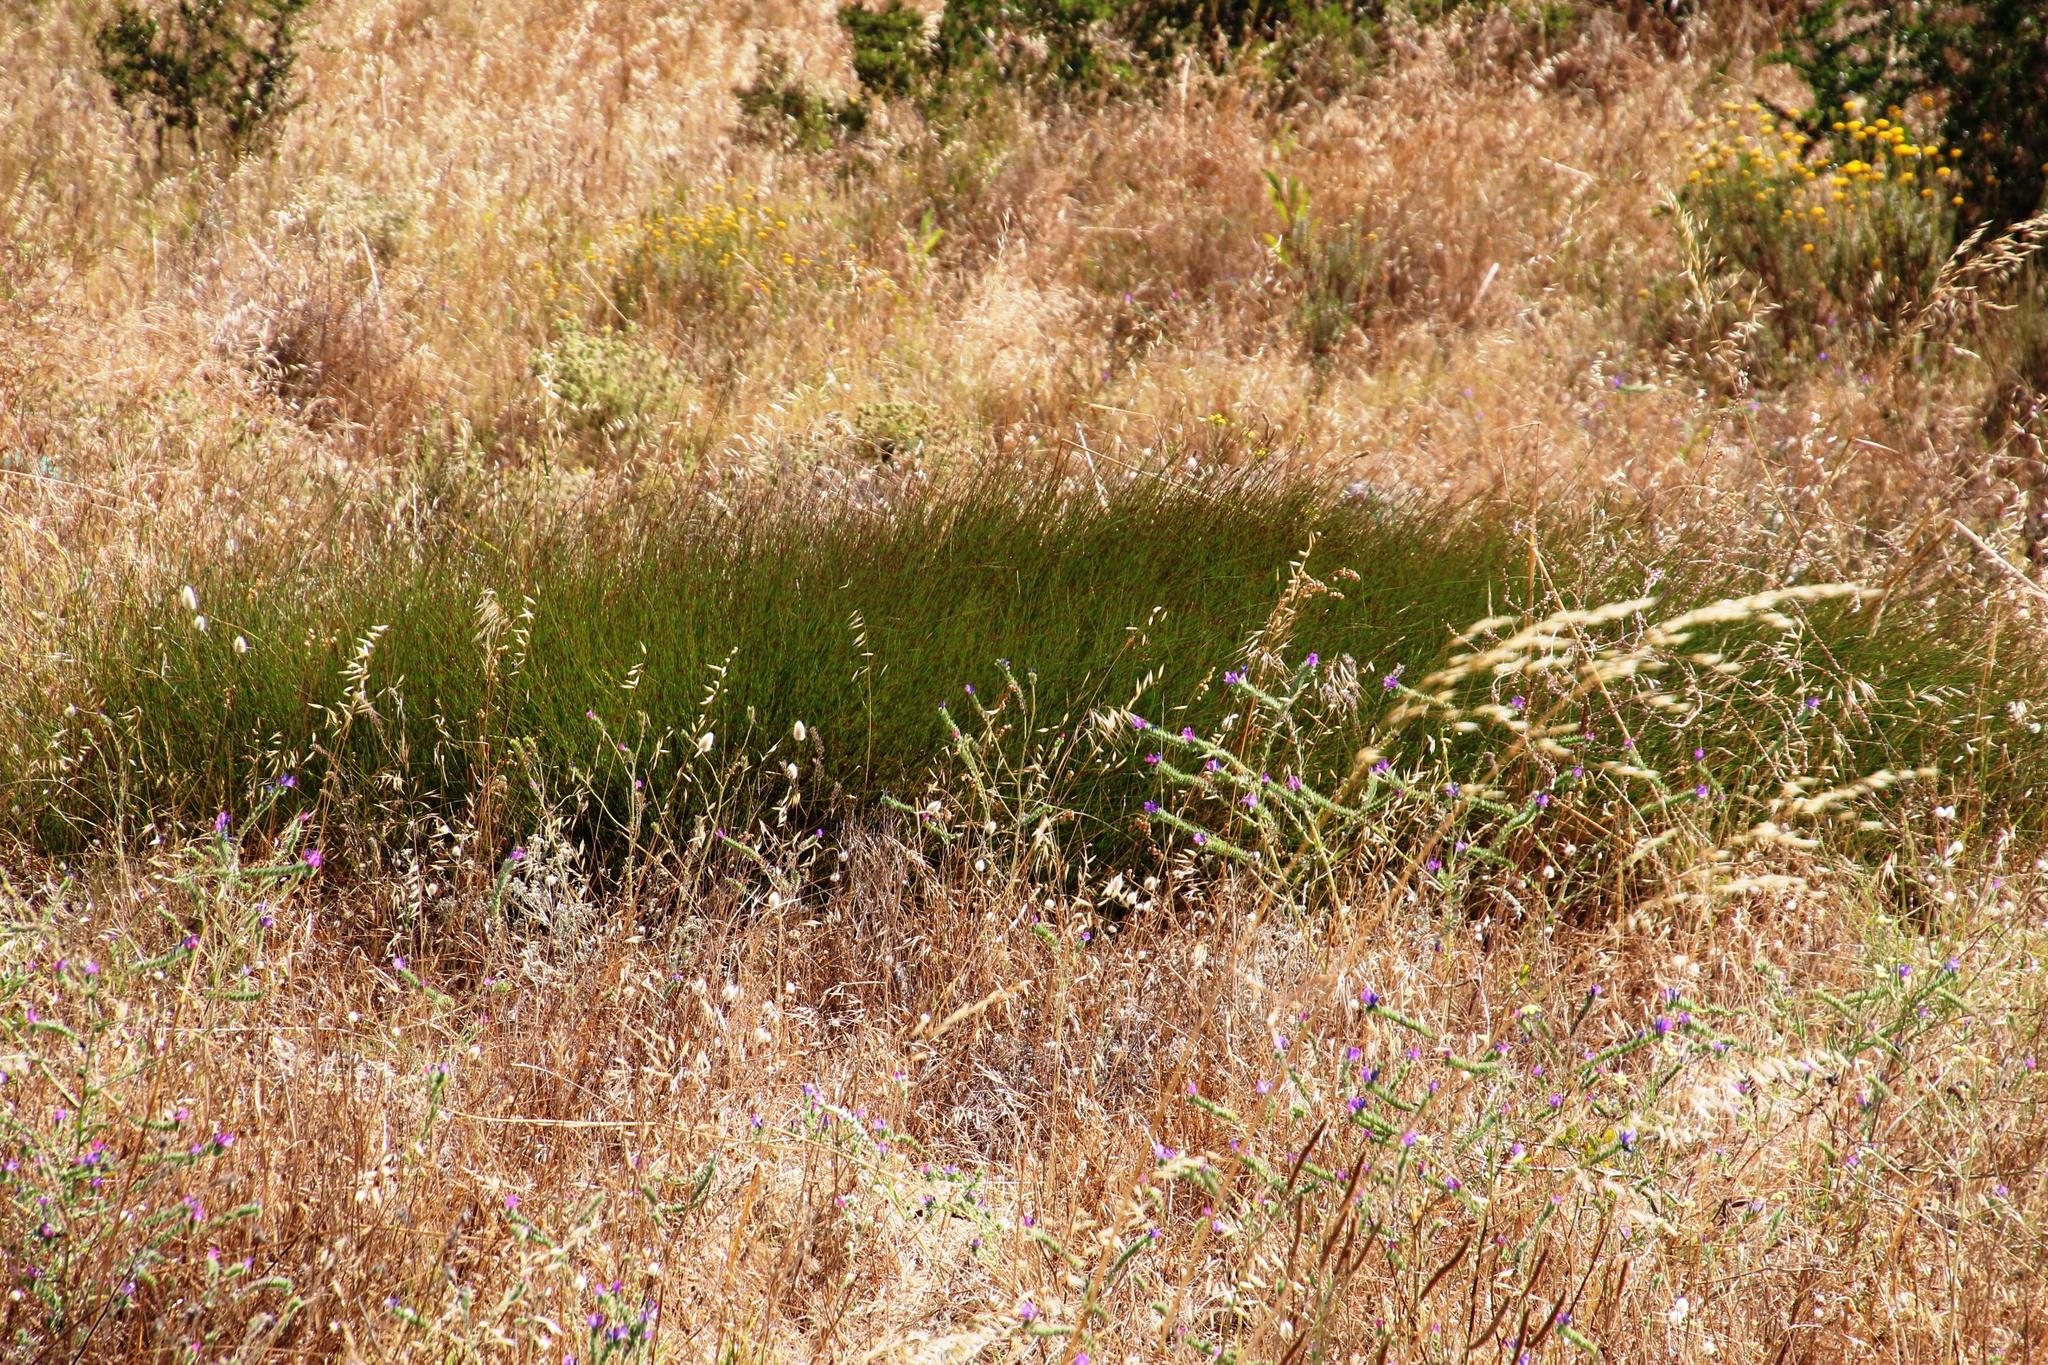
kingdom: Plantae
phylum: Tracheophyta
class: Liliopsida
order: Poales
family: Restionaceae
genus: Elegia
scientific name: Elegia recta
